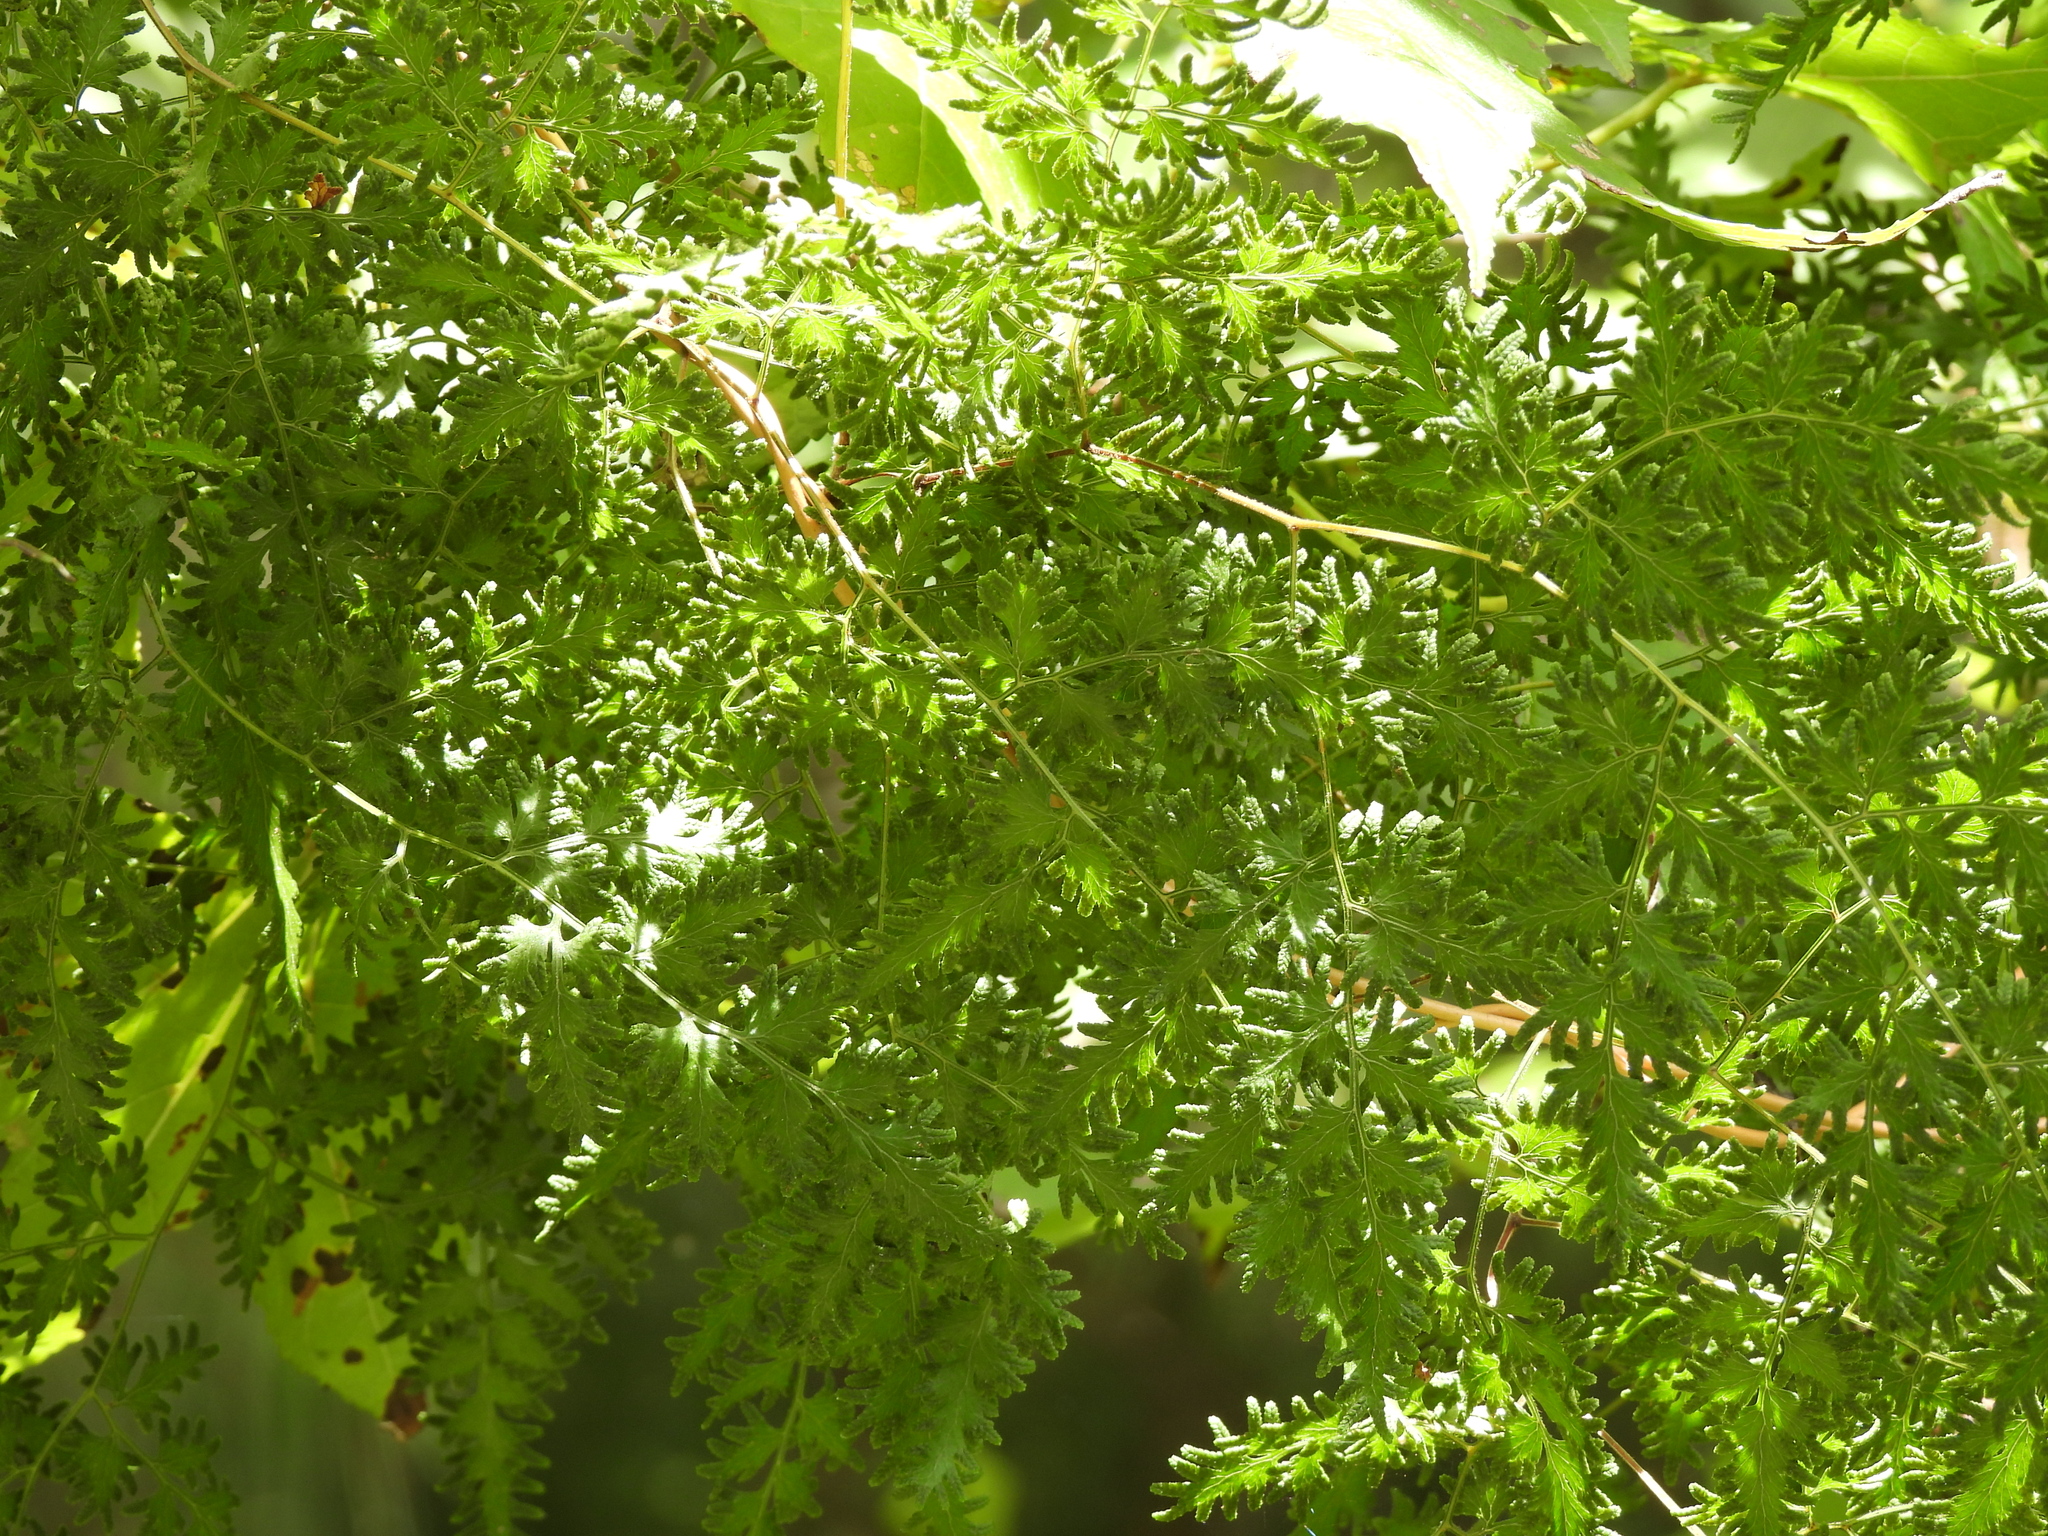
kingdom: Plantae
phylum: Tracheophyta
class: Polypodiopsida
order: Schizaeales
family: Lygodiaceae
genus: Lygodium
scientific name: Lygodium japonicum
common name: Japanese climbing fern
